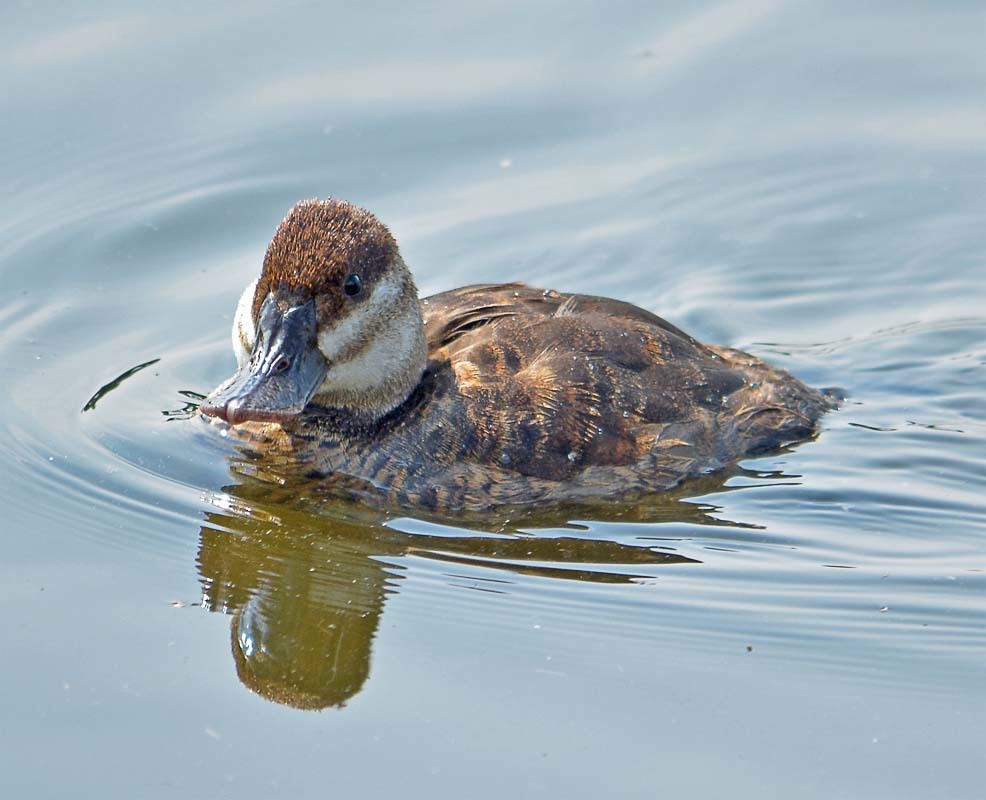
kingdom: Animalia
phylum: Chordata
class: Aves
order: Anseriformes
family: Anatidae
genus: Oxyura
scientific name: Oxyura jamaicensis
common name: Ruddy duck
